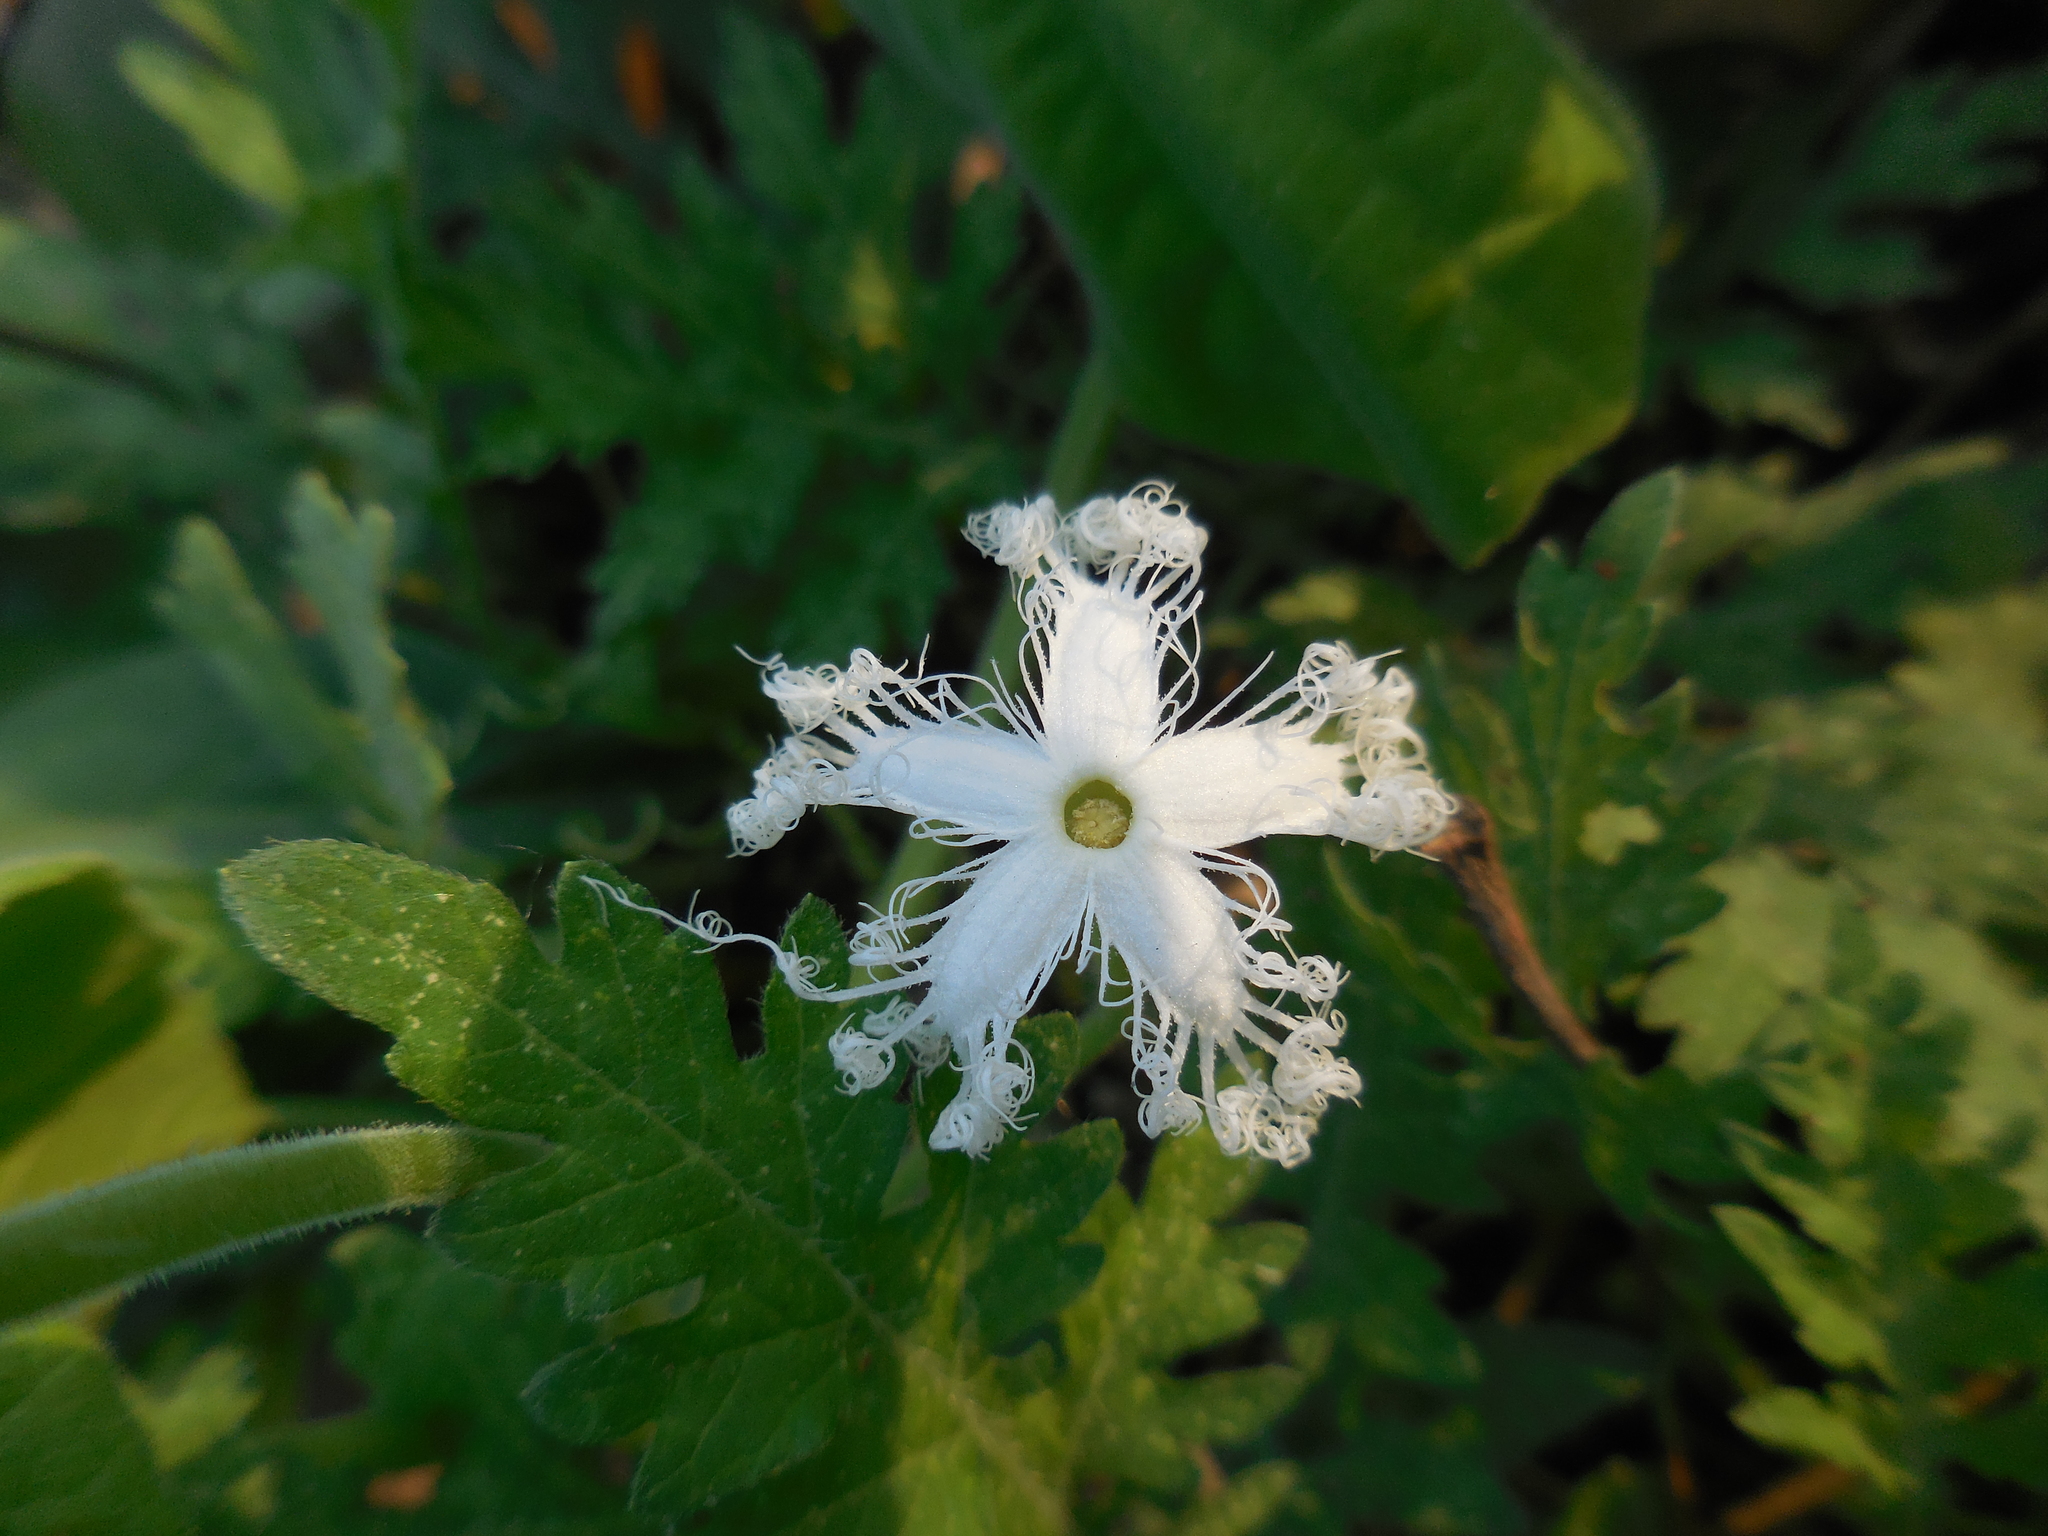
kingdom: Plantae
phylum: Tracheophyta
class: Magnoliopsida
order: Cucurbitales
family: Cucurbitaceae
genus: Trichosanthes
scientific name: Trichosanthes cucumerina
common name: Snakegourd
